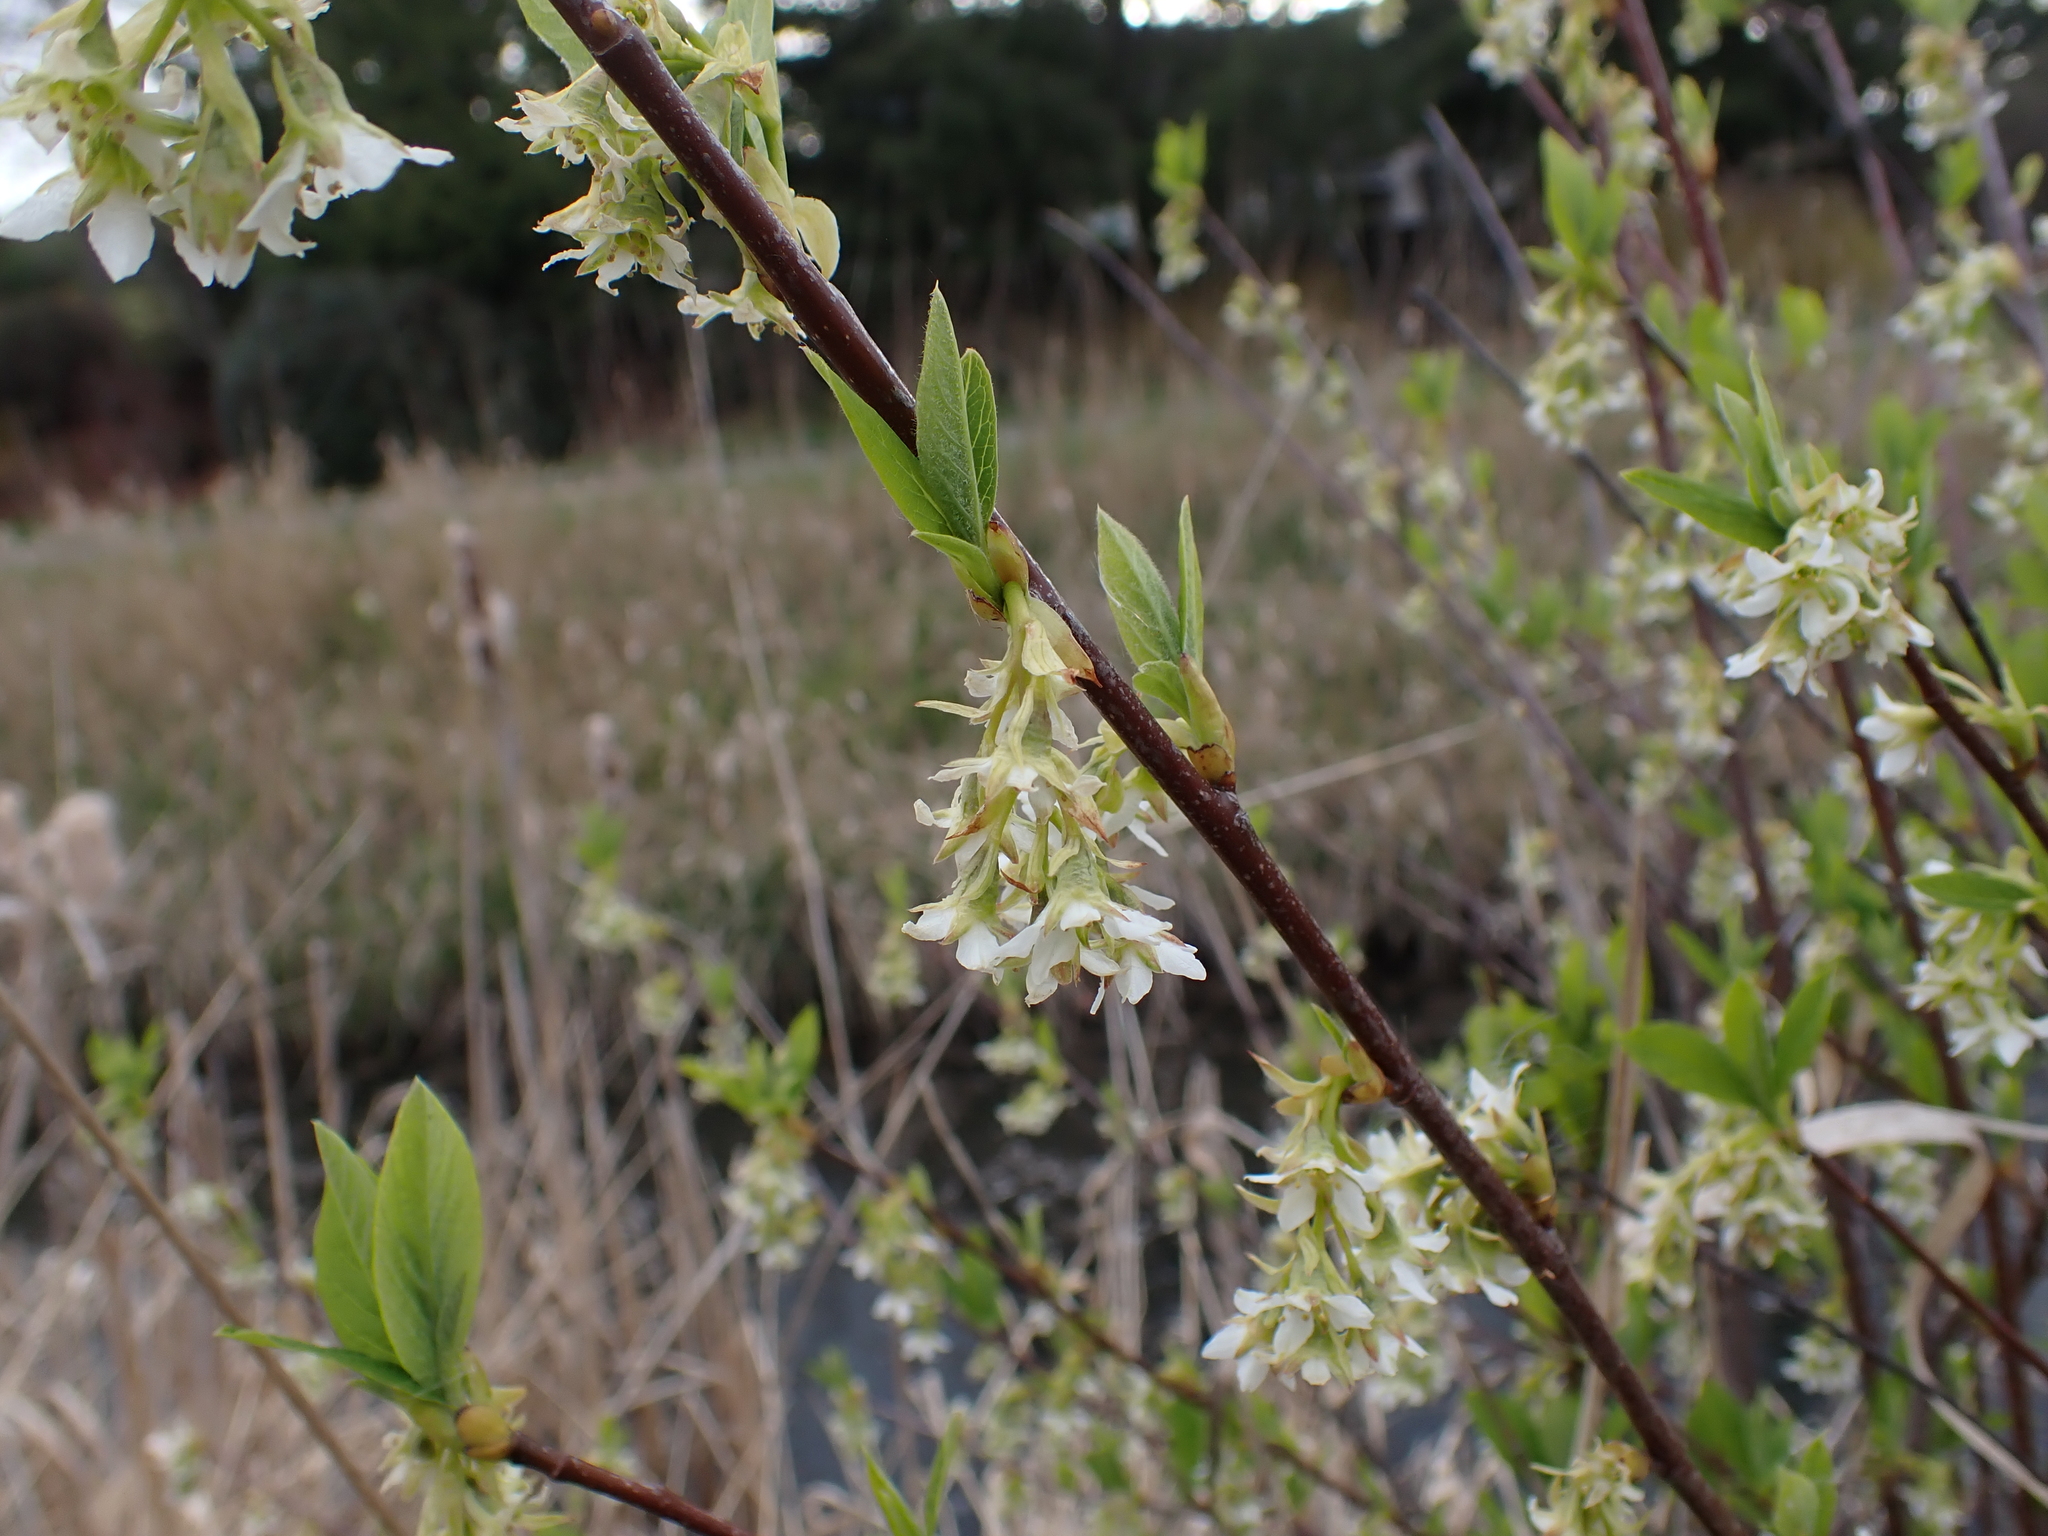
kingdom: Plantae
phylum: Tracheophyta
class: Magnoliopsida
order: Rosales
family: Rosaceae
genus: Oemleria
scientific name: Oemleria cerasiformis
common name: Osoberry
